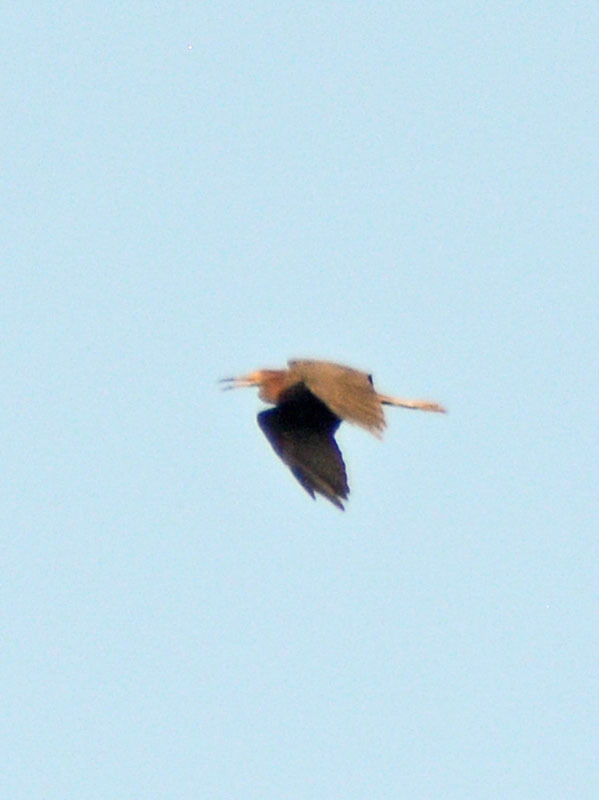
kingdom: Animalia
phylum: Chordata
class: Aves
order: Pelecaniformes
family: Ardeidae
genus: Egretta
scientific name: Egretta rufescens
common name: Reddish egret
